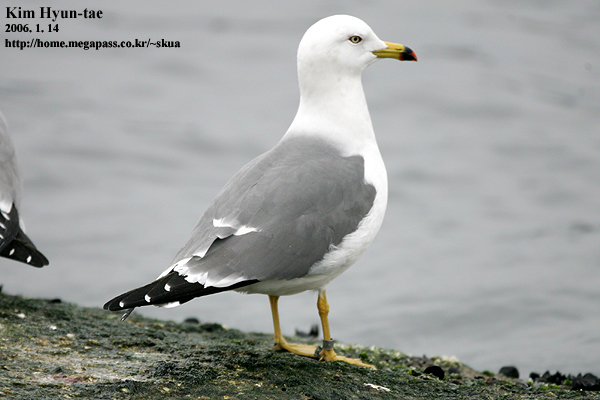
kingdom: Animalia
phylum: Chordata
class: Aves
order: Charadriiformes
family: Laridae
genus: Larus
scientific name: Larus crassirostris
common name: Black-tailed gull
